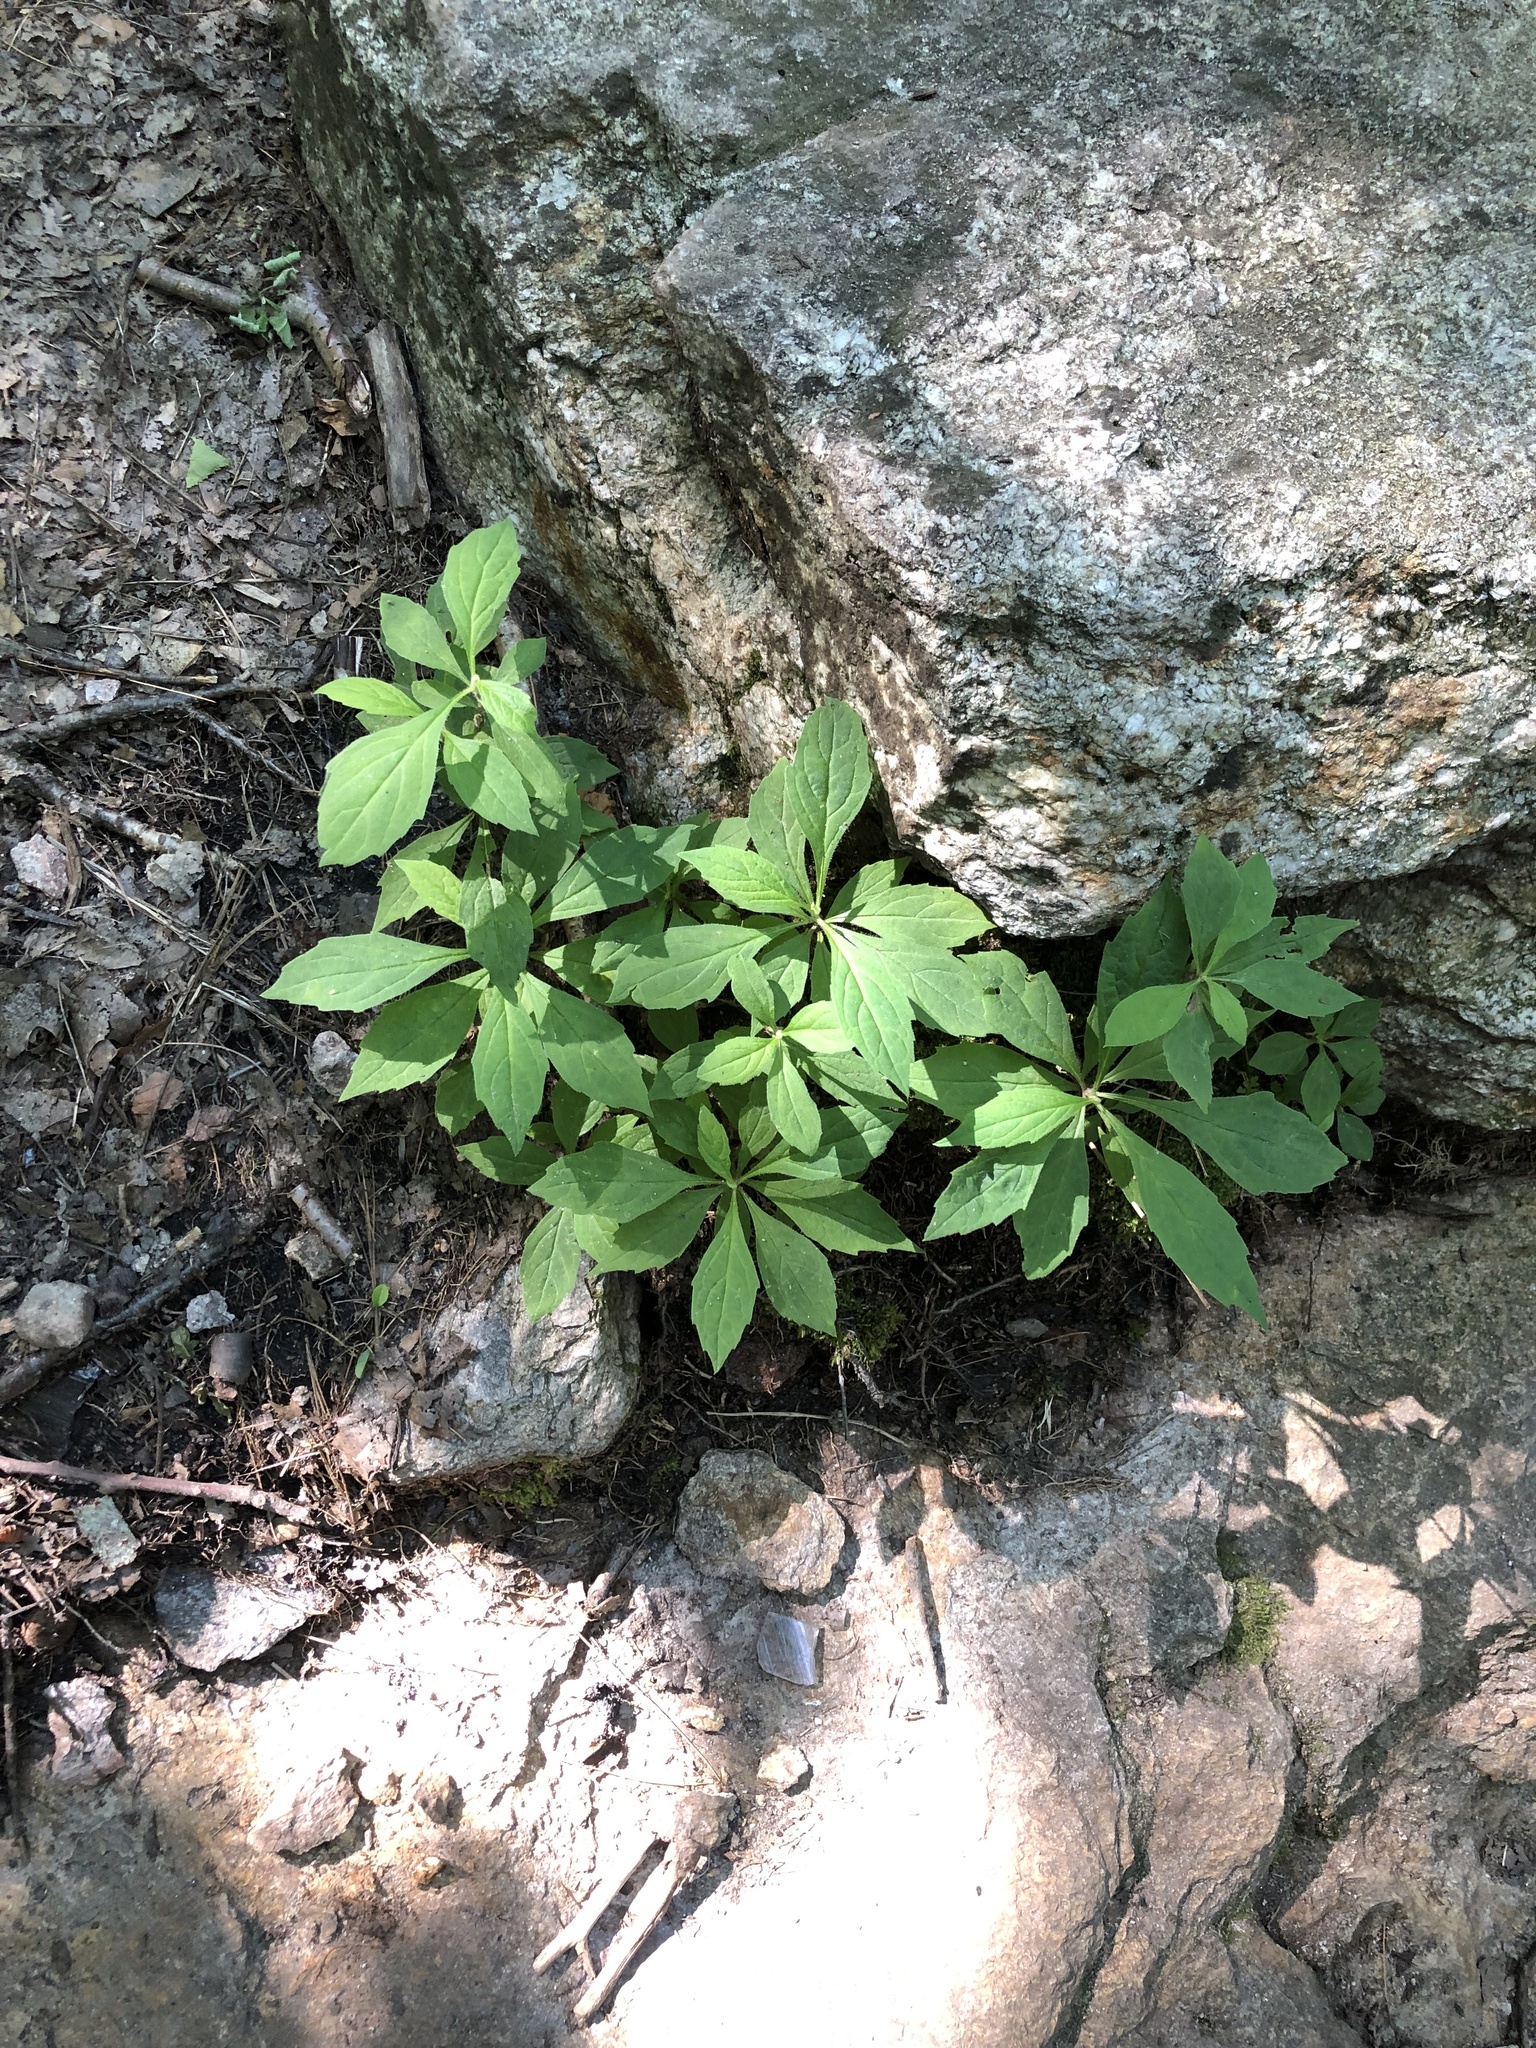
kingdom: Plantae
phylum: Tracheophyta
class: Magnoliopsida
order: Asterales
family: Asteraceae
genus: Oclemena
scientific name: Oclemena acuminata
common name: Mountain aster
